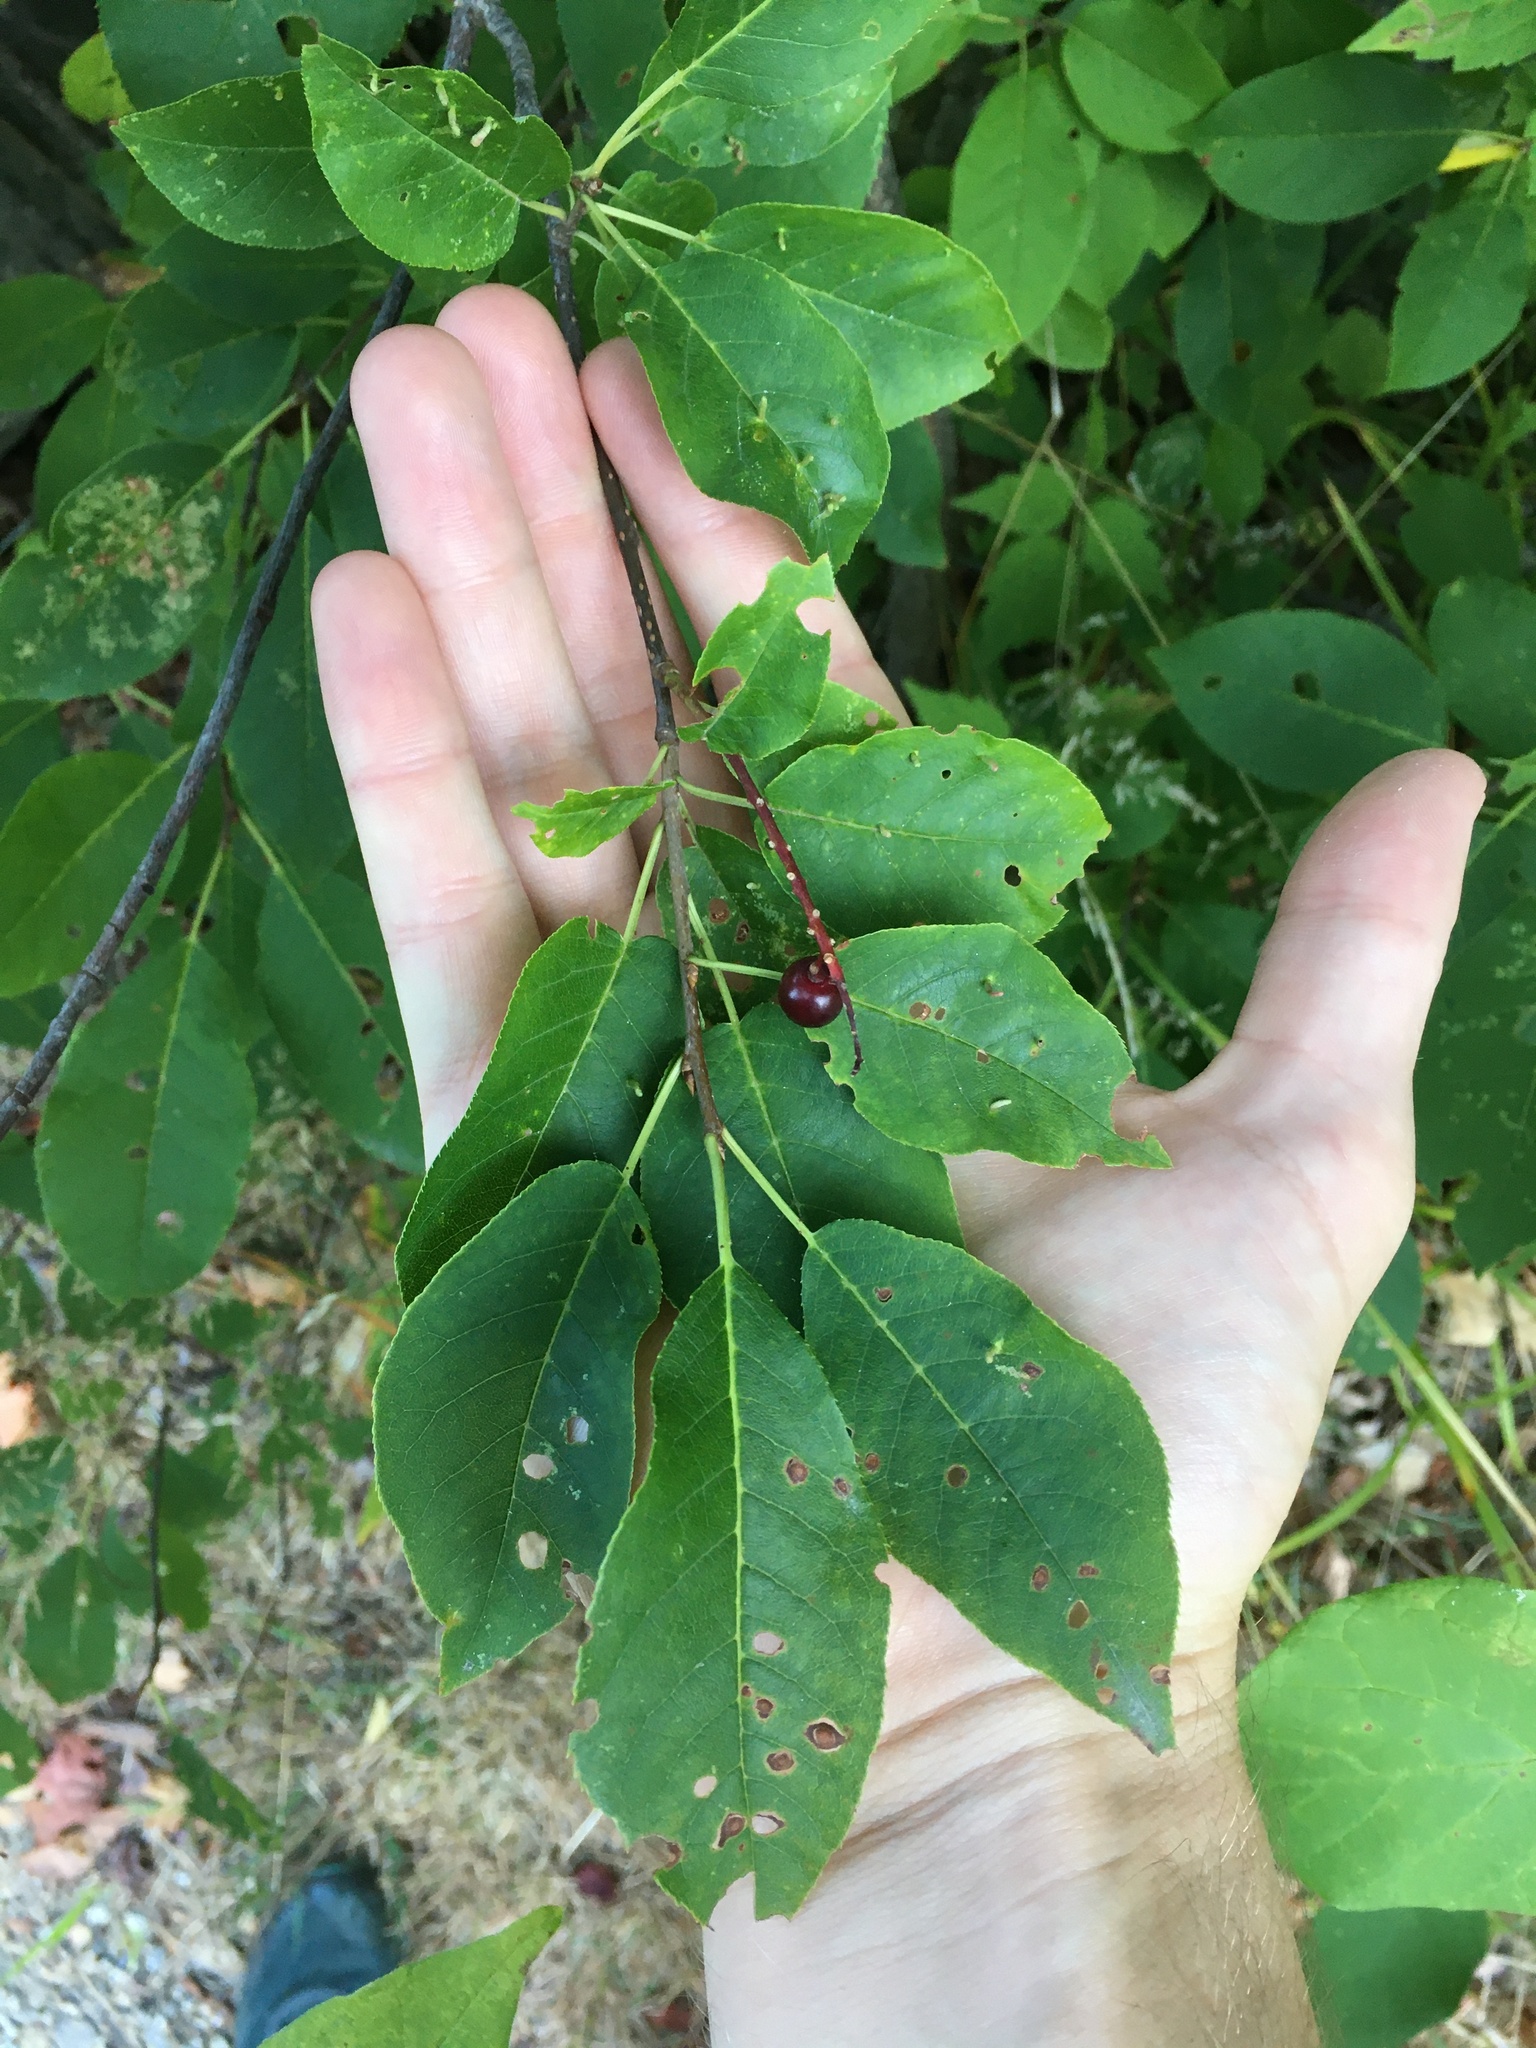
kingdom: Plantae
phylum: Tracheophyta
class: Magnoliopsida
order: Rosales
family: Rosaceae
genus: Prunus
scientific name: Prunus virginiana
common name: Chokecherry
